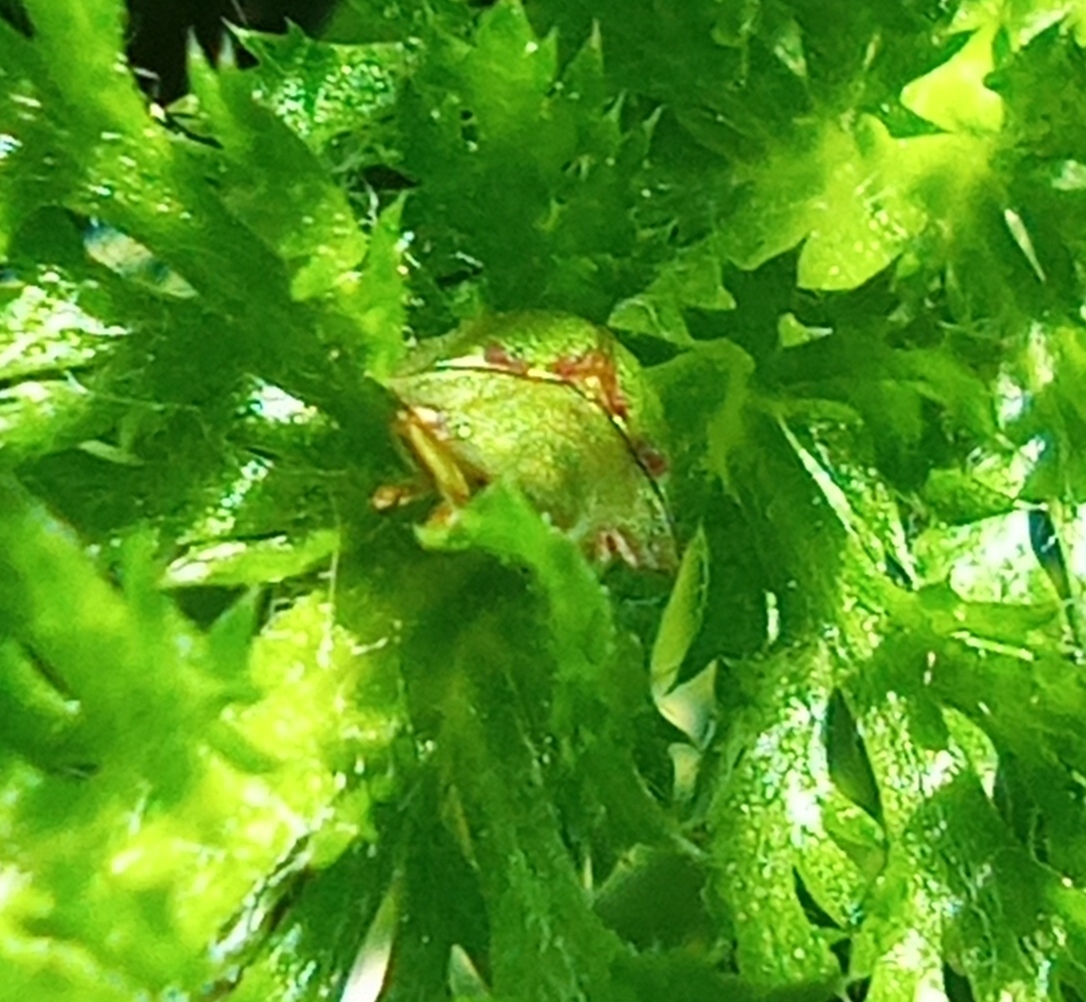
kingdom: Animalia
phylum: Arthropoda
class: Insecta
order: Coleoptera
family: Chrysomelidae
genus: Cassida
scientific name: Cassida prasina
